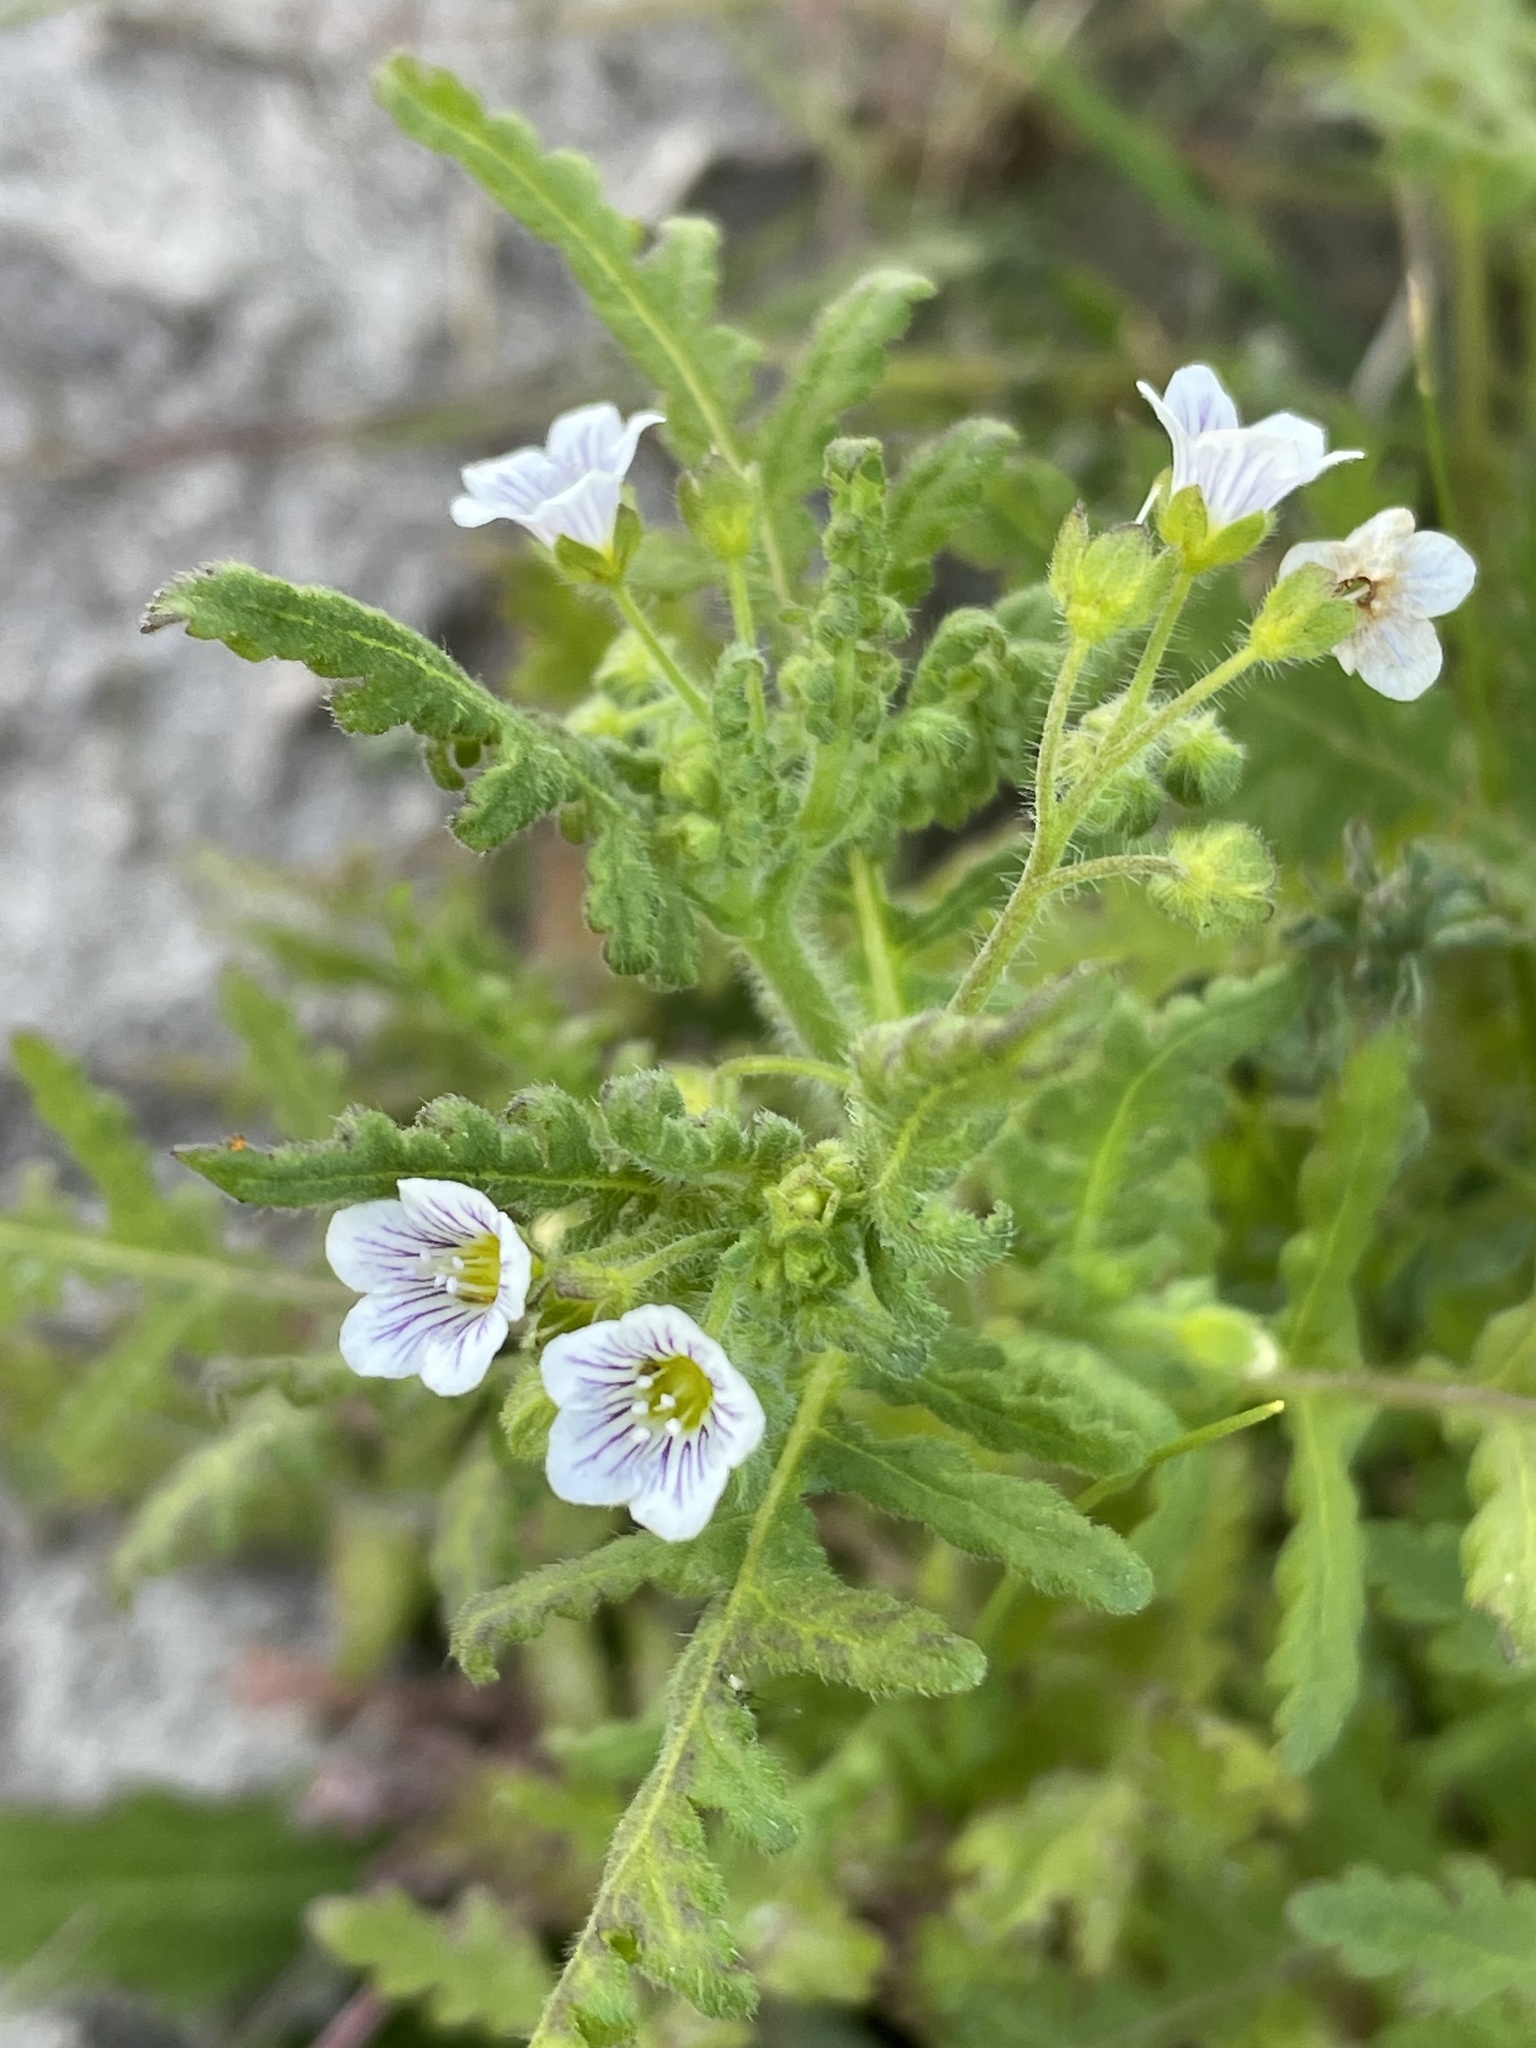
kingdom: Plantae
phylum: Tracheophyta
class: Magnoliopsida
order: Boraginales
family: Hydrophyllaceae
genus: Eucrypta
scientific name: Eucrypta chrysanthemifolia
